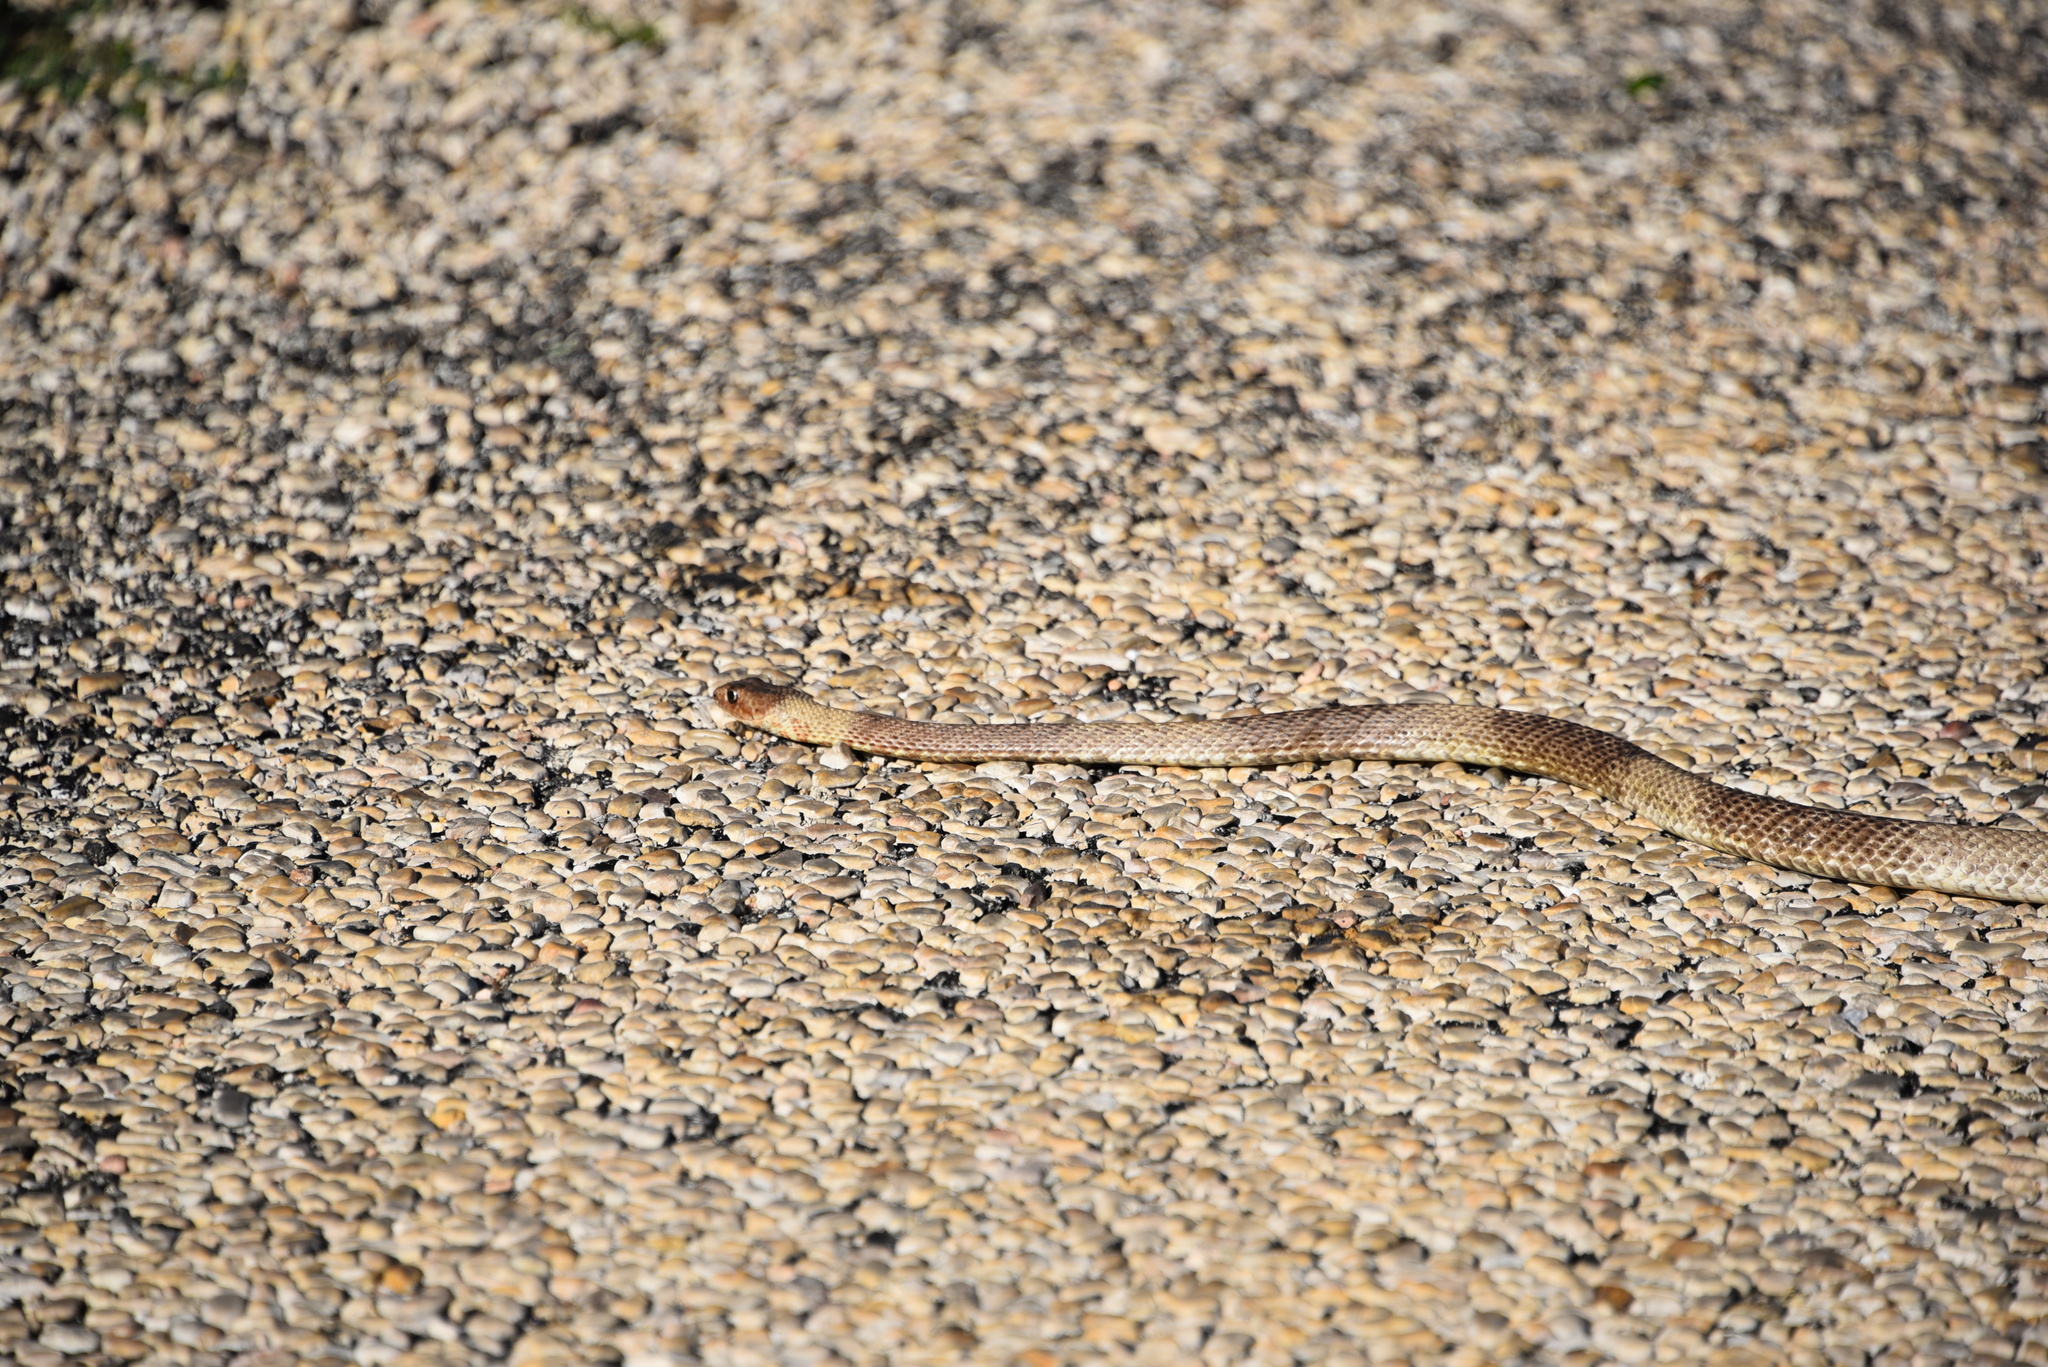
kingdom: Animalia
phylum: Chordata
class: Squamata
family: Colubridae
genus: Masticophis
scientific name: Masticophis flagellum
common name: Coachwhip
